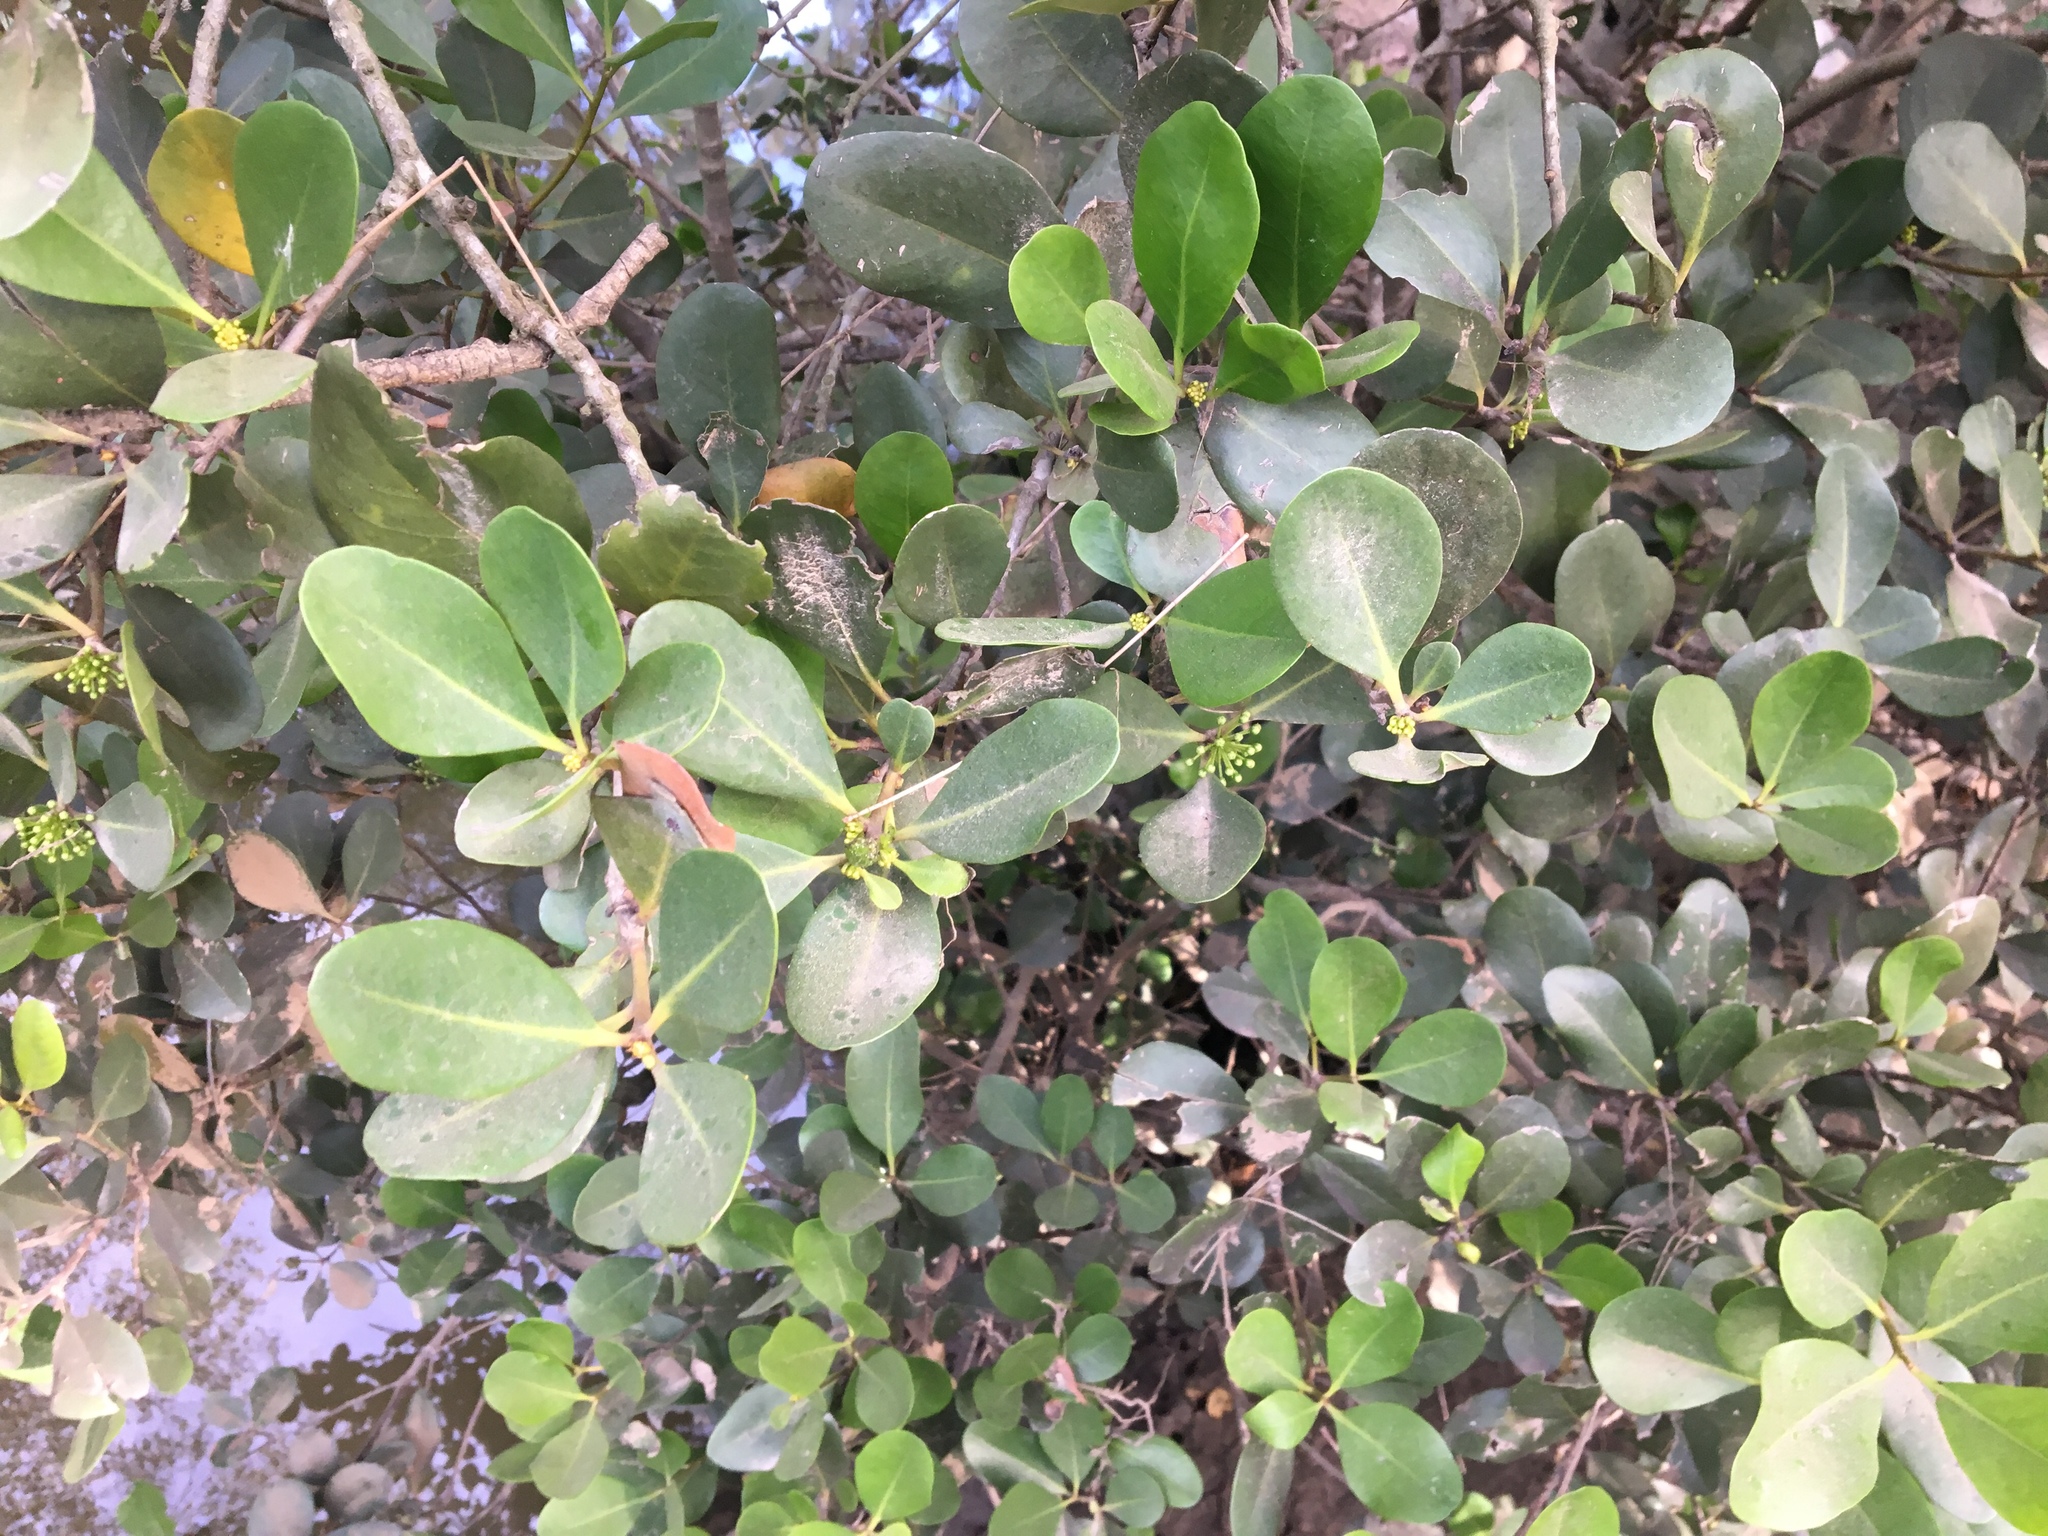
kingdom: Plantae
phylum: Tracheophyta
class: Magnoliopsida
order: Ericales
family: Primulaceae
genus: Aegiceras
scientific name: Aegiceras corniculatum
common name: River mangrove
